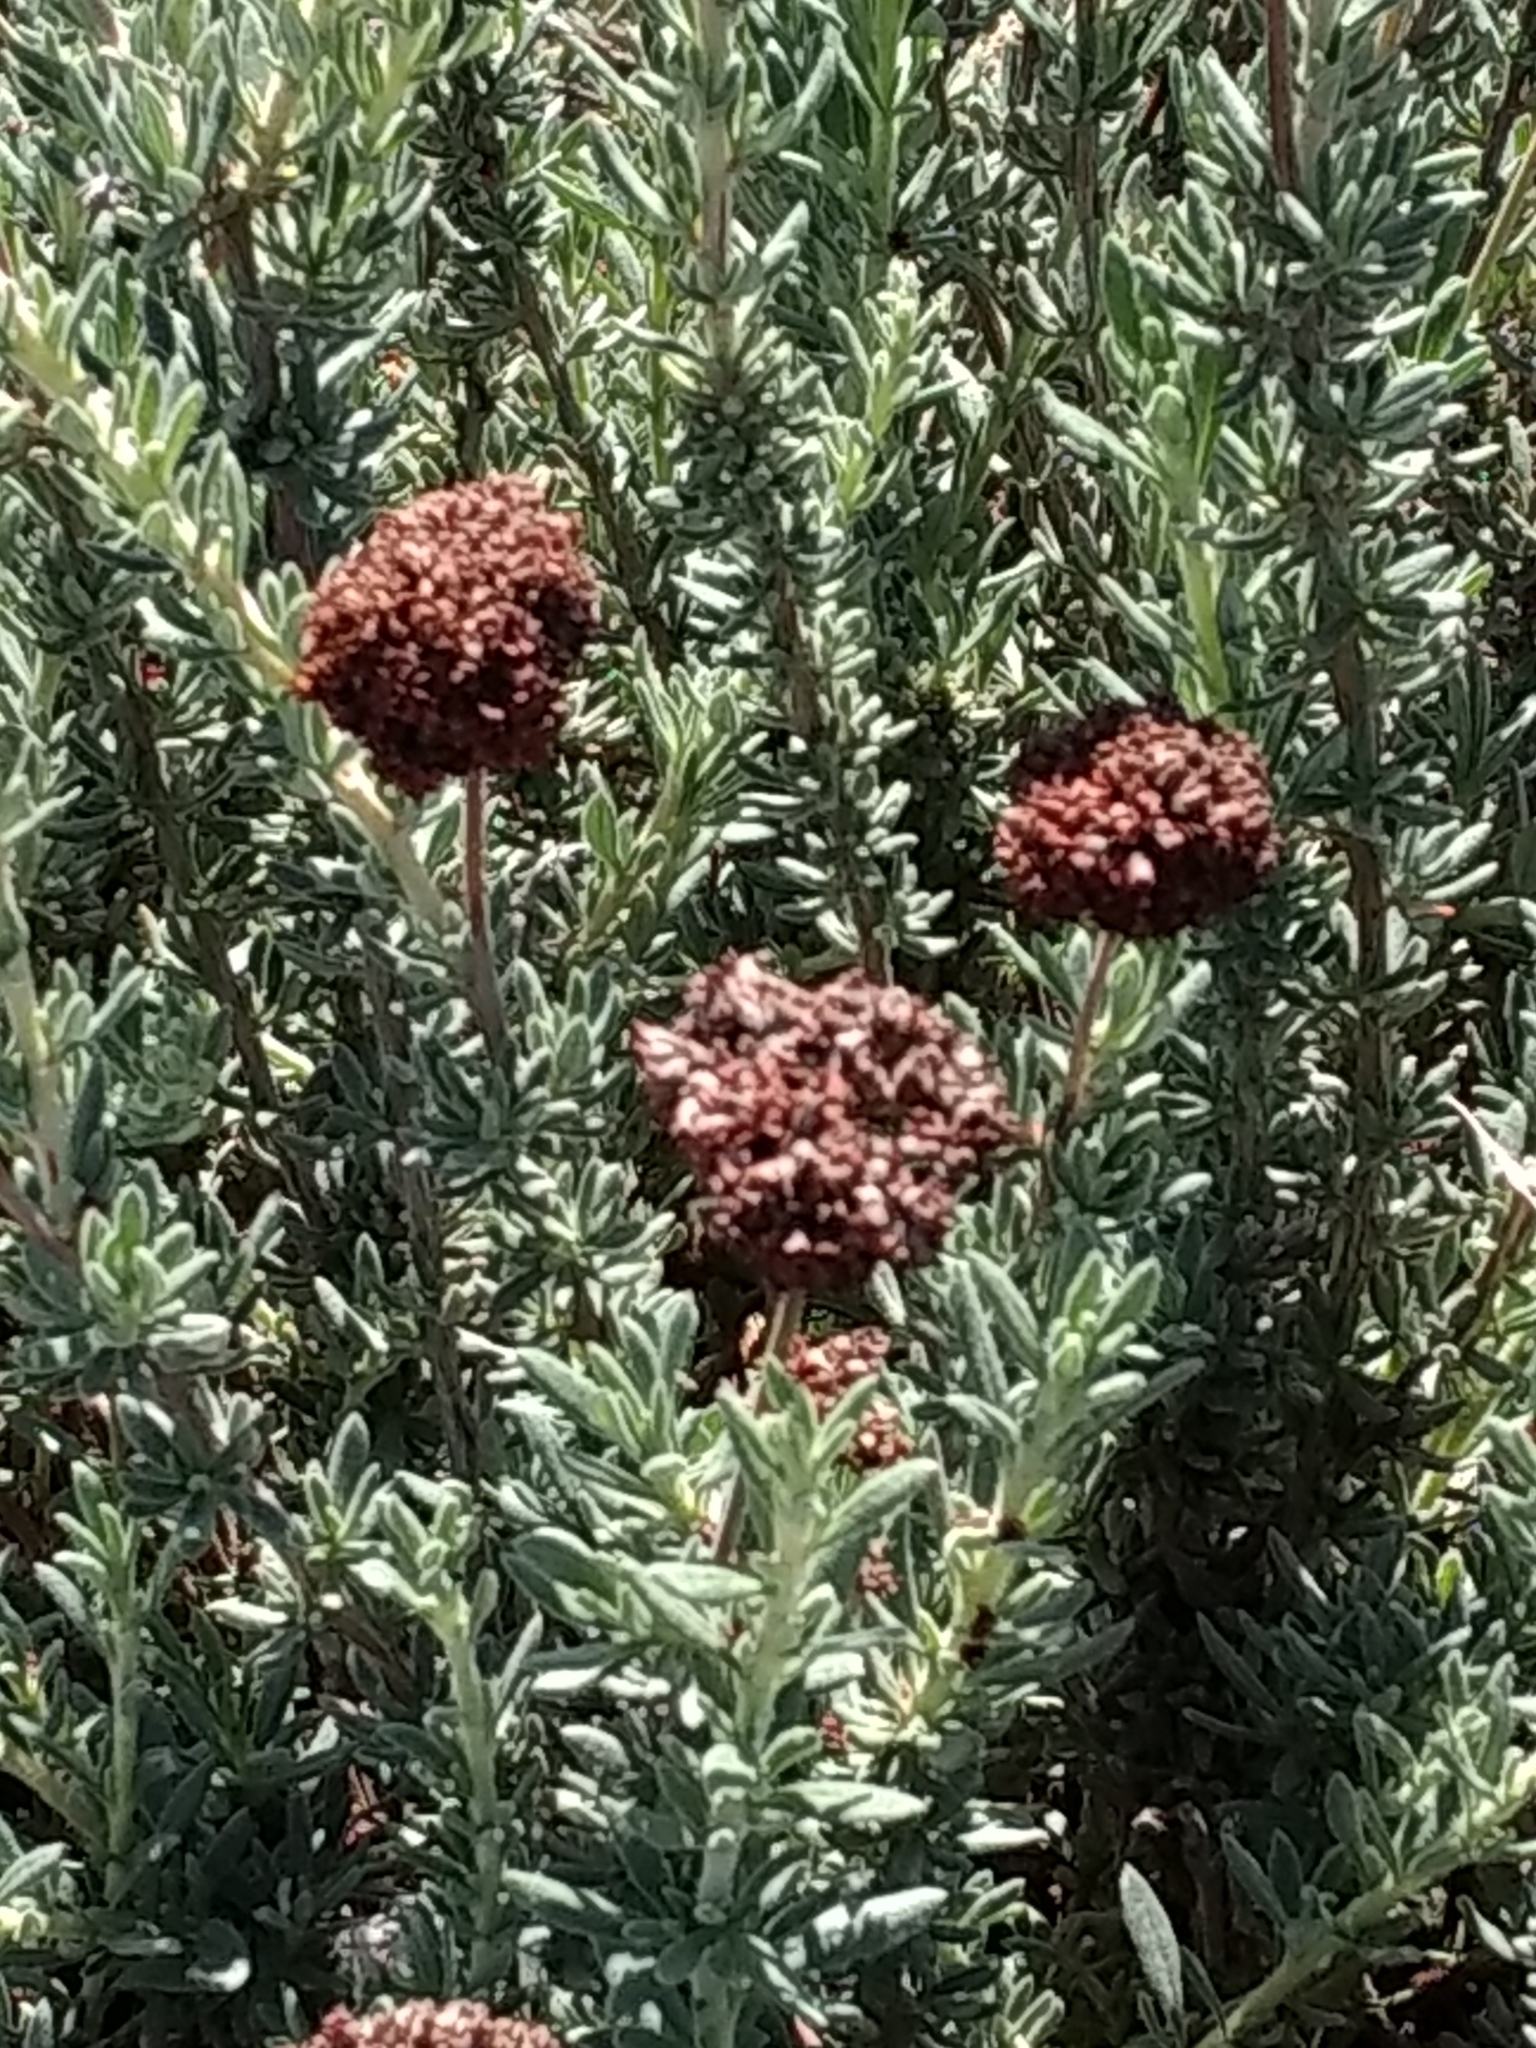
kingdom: Plantae
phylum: Tracheophyta
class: Magnoliopsida
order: Caryophyllales
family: Polygonaceae
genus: Eriogonum
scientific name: Eriogonum fasciculatum
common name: California wild buckwheat
